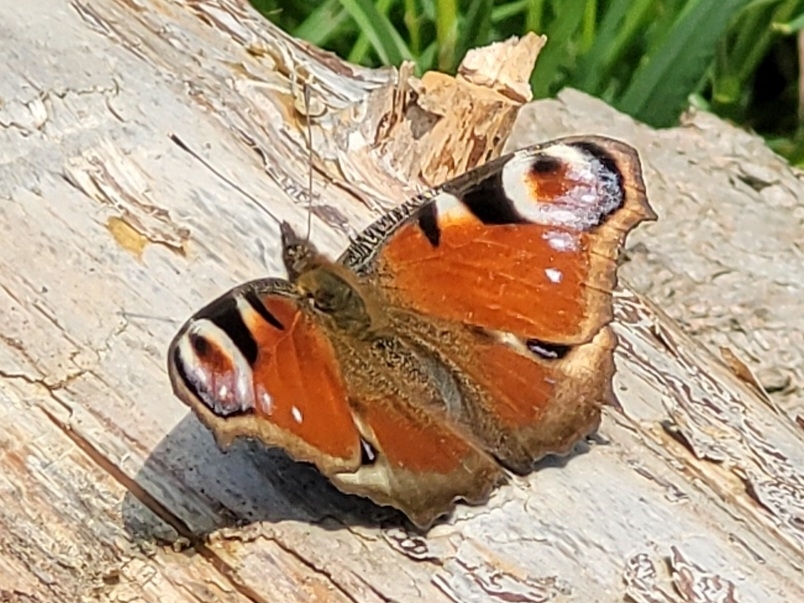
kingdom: Animalia
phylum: Arthropoda
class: Insecta
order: Lepidoptera
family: Nymphalidae
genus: Aglais
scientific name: Aglais io
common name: Peacock
